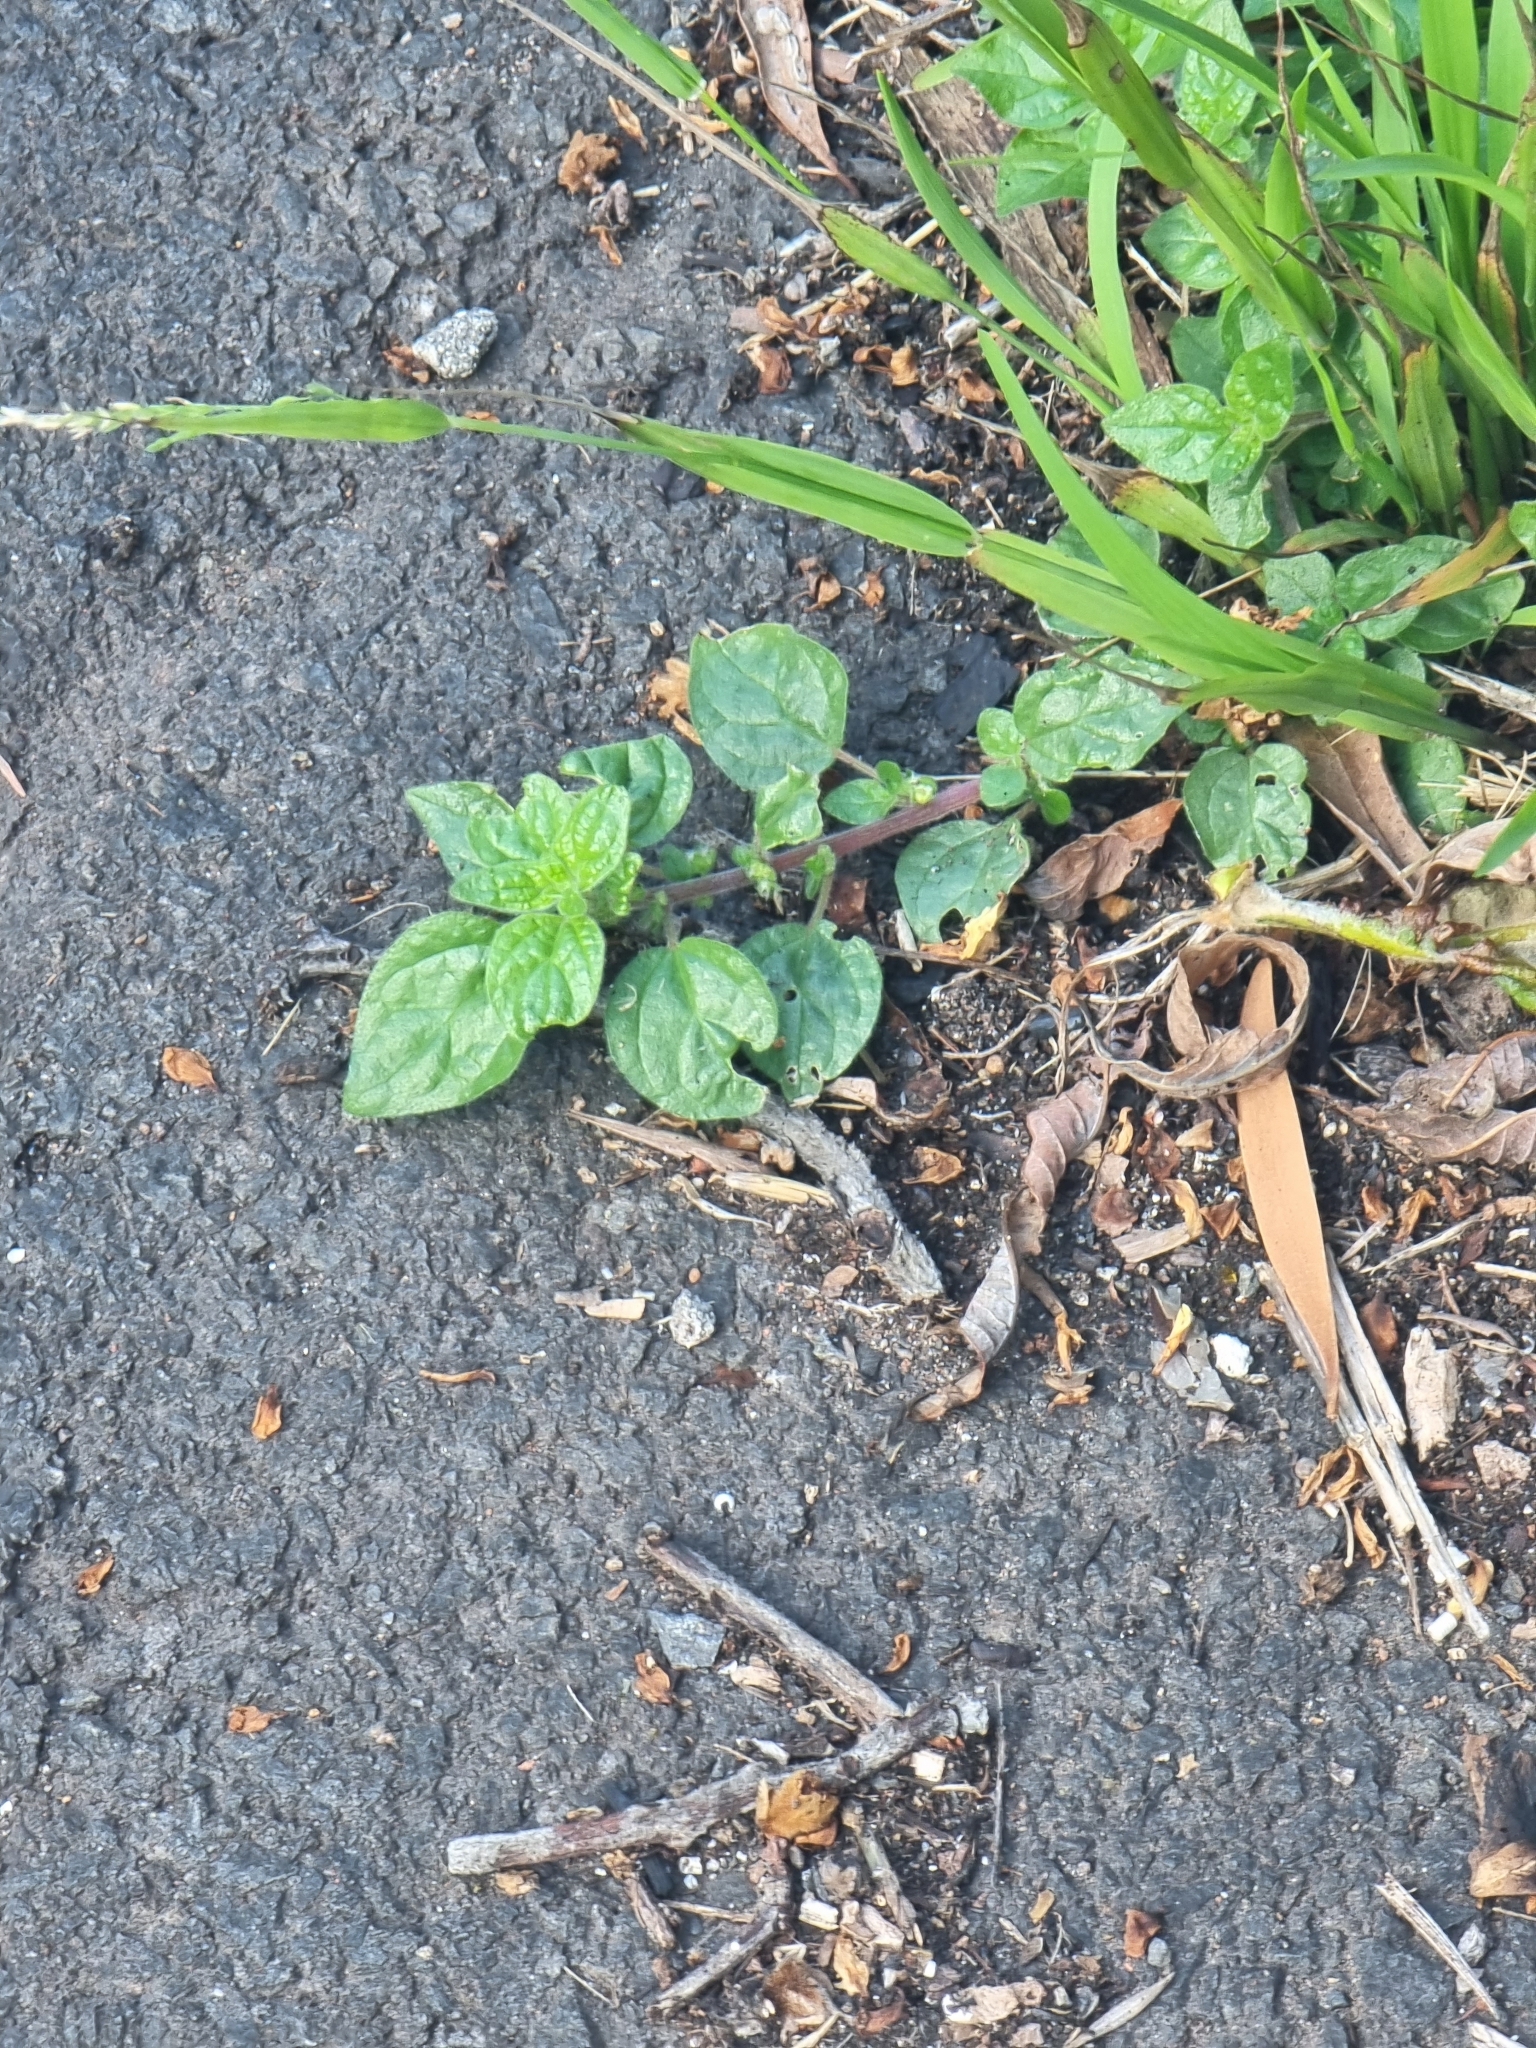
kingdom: Plantae
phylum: Tracheophyta
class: Magnoliopsida
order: Rosales
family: Urticaceae
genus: Parietaria
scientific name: Parietaria judaica
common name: Pellitory-of-the-wall
